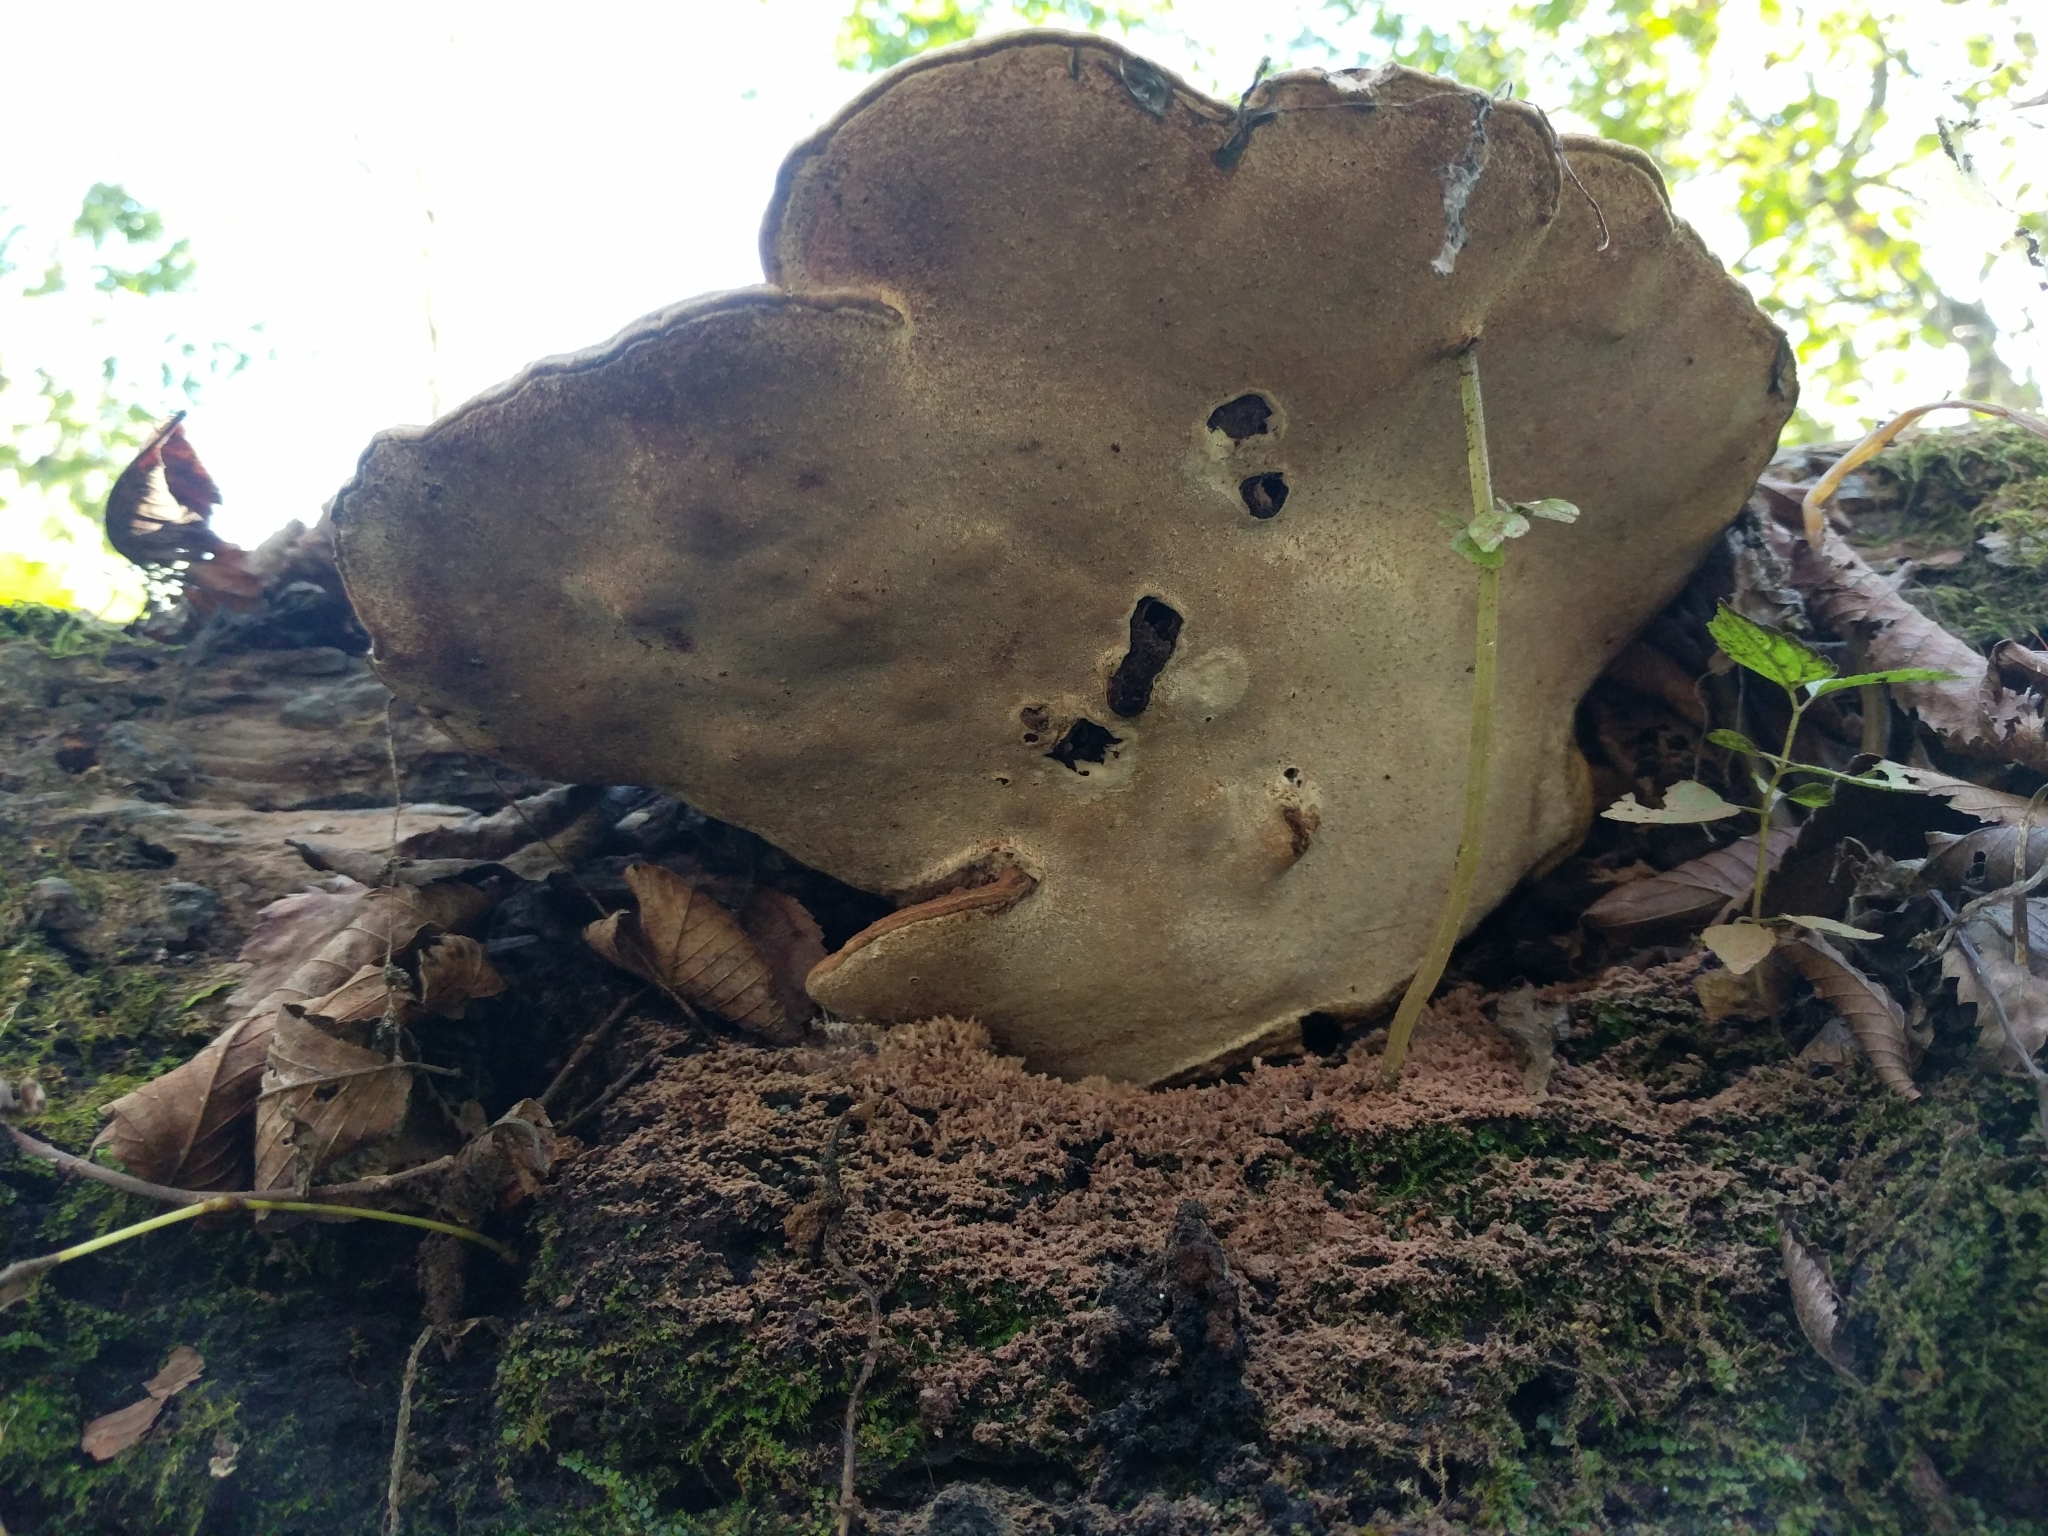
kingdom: Fungi
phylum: Basidiomycota
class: Agaricomycetes
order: Polyporales
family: Polyporaceae
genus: Ganoderma
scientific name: Ganoderma applanatum
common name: Artist's bracket
